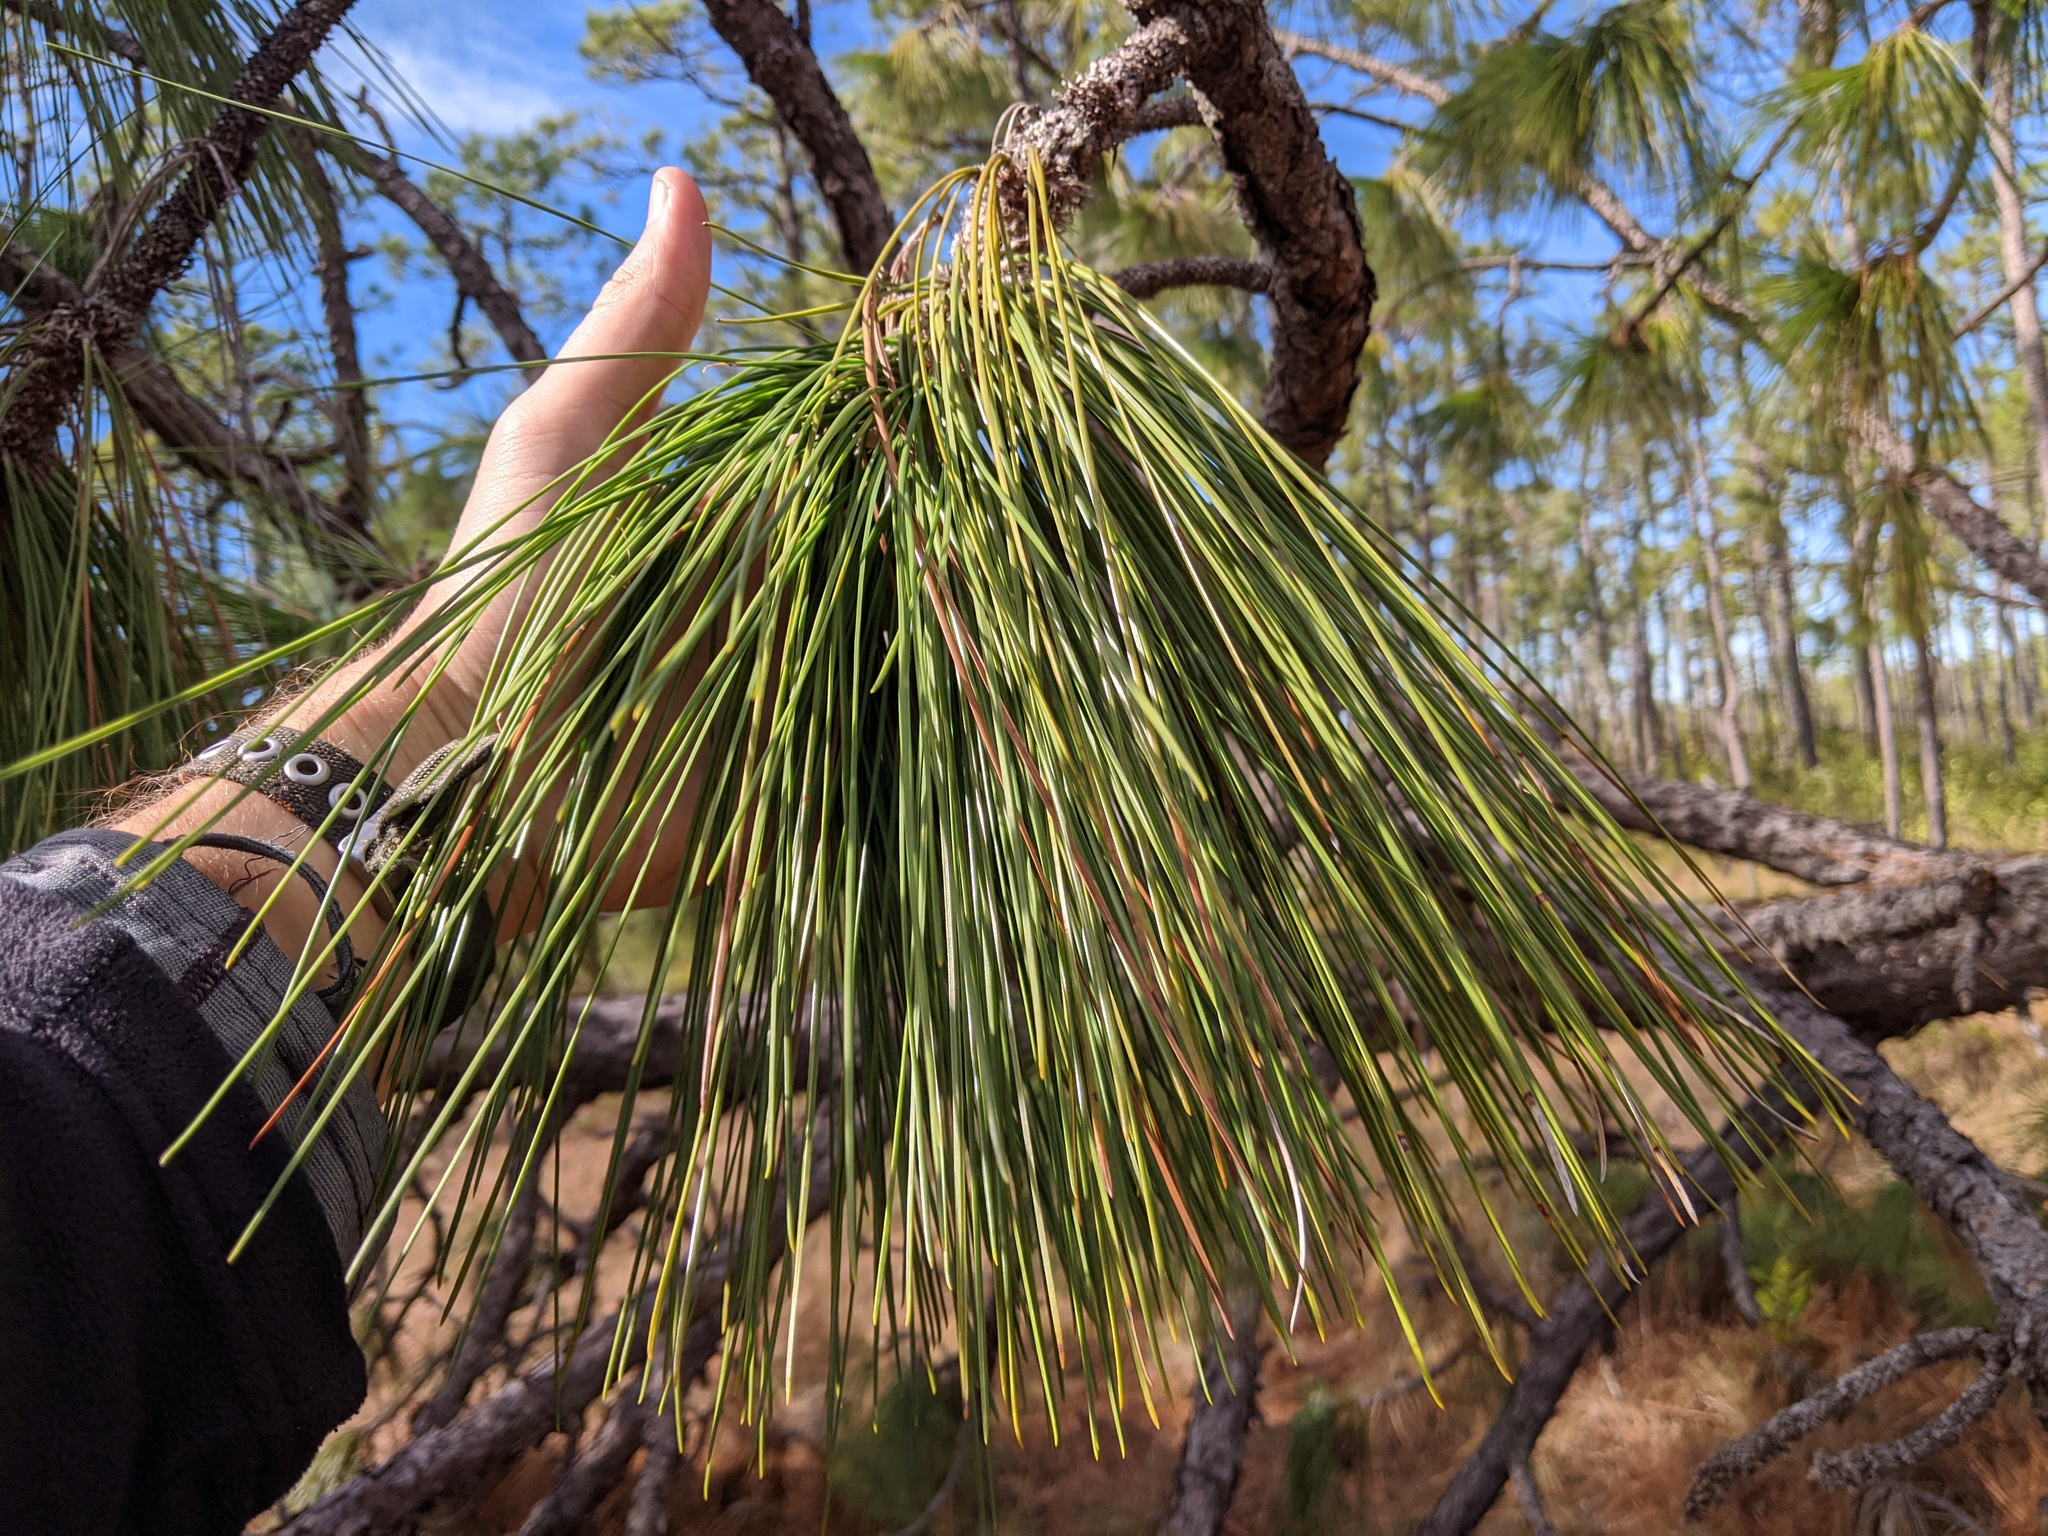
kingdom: Plantae
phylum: Tracheophyta
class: Pinopsida
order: Pinales
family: Pinaceae
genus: Pinus
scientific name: Pinus palustris
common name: Longleaf pine
